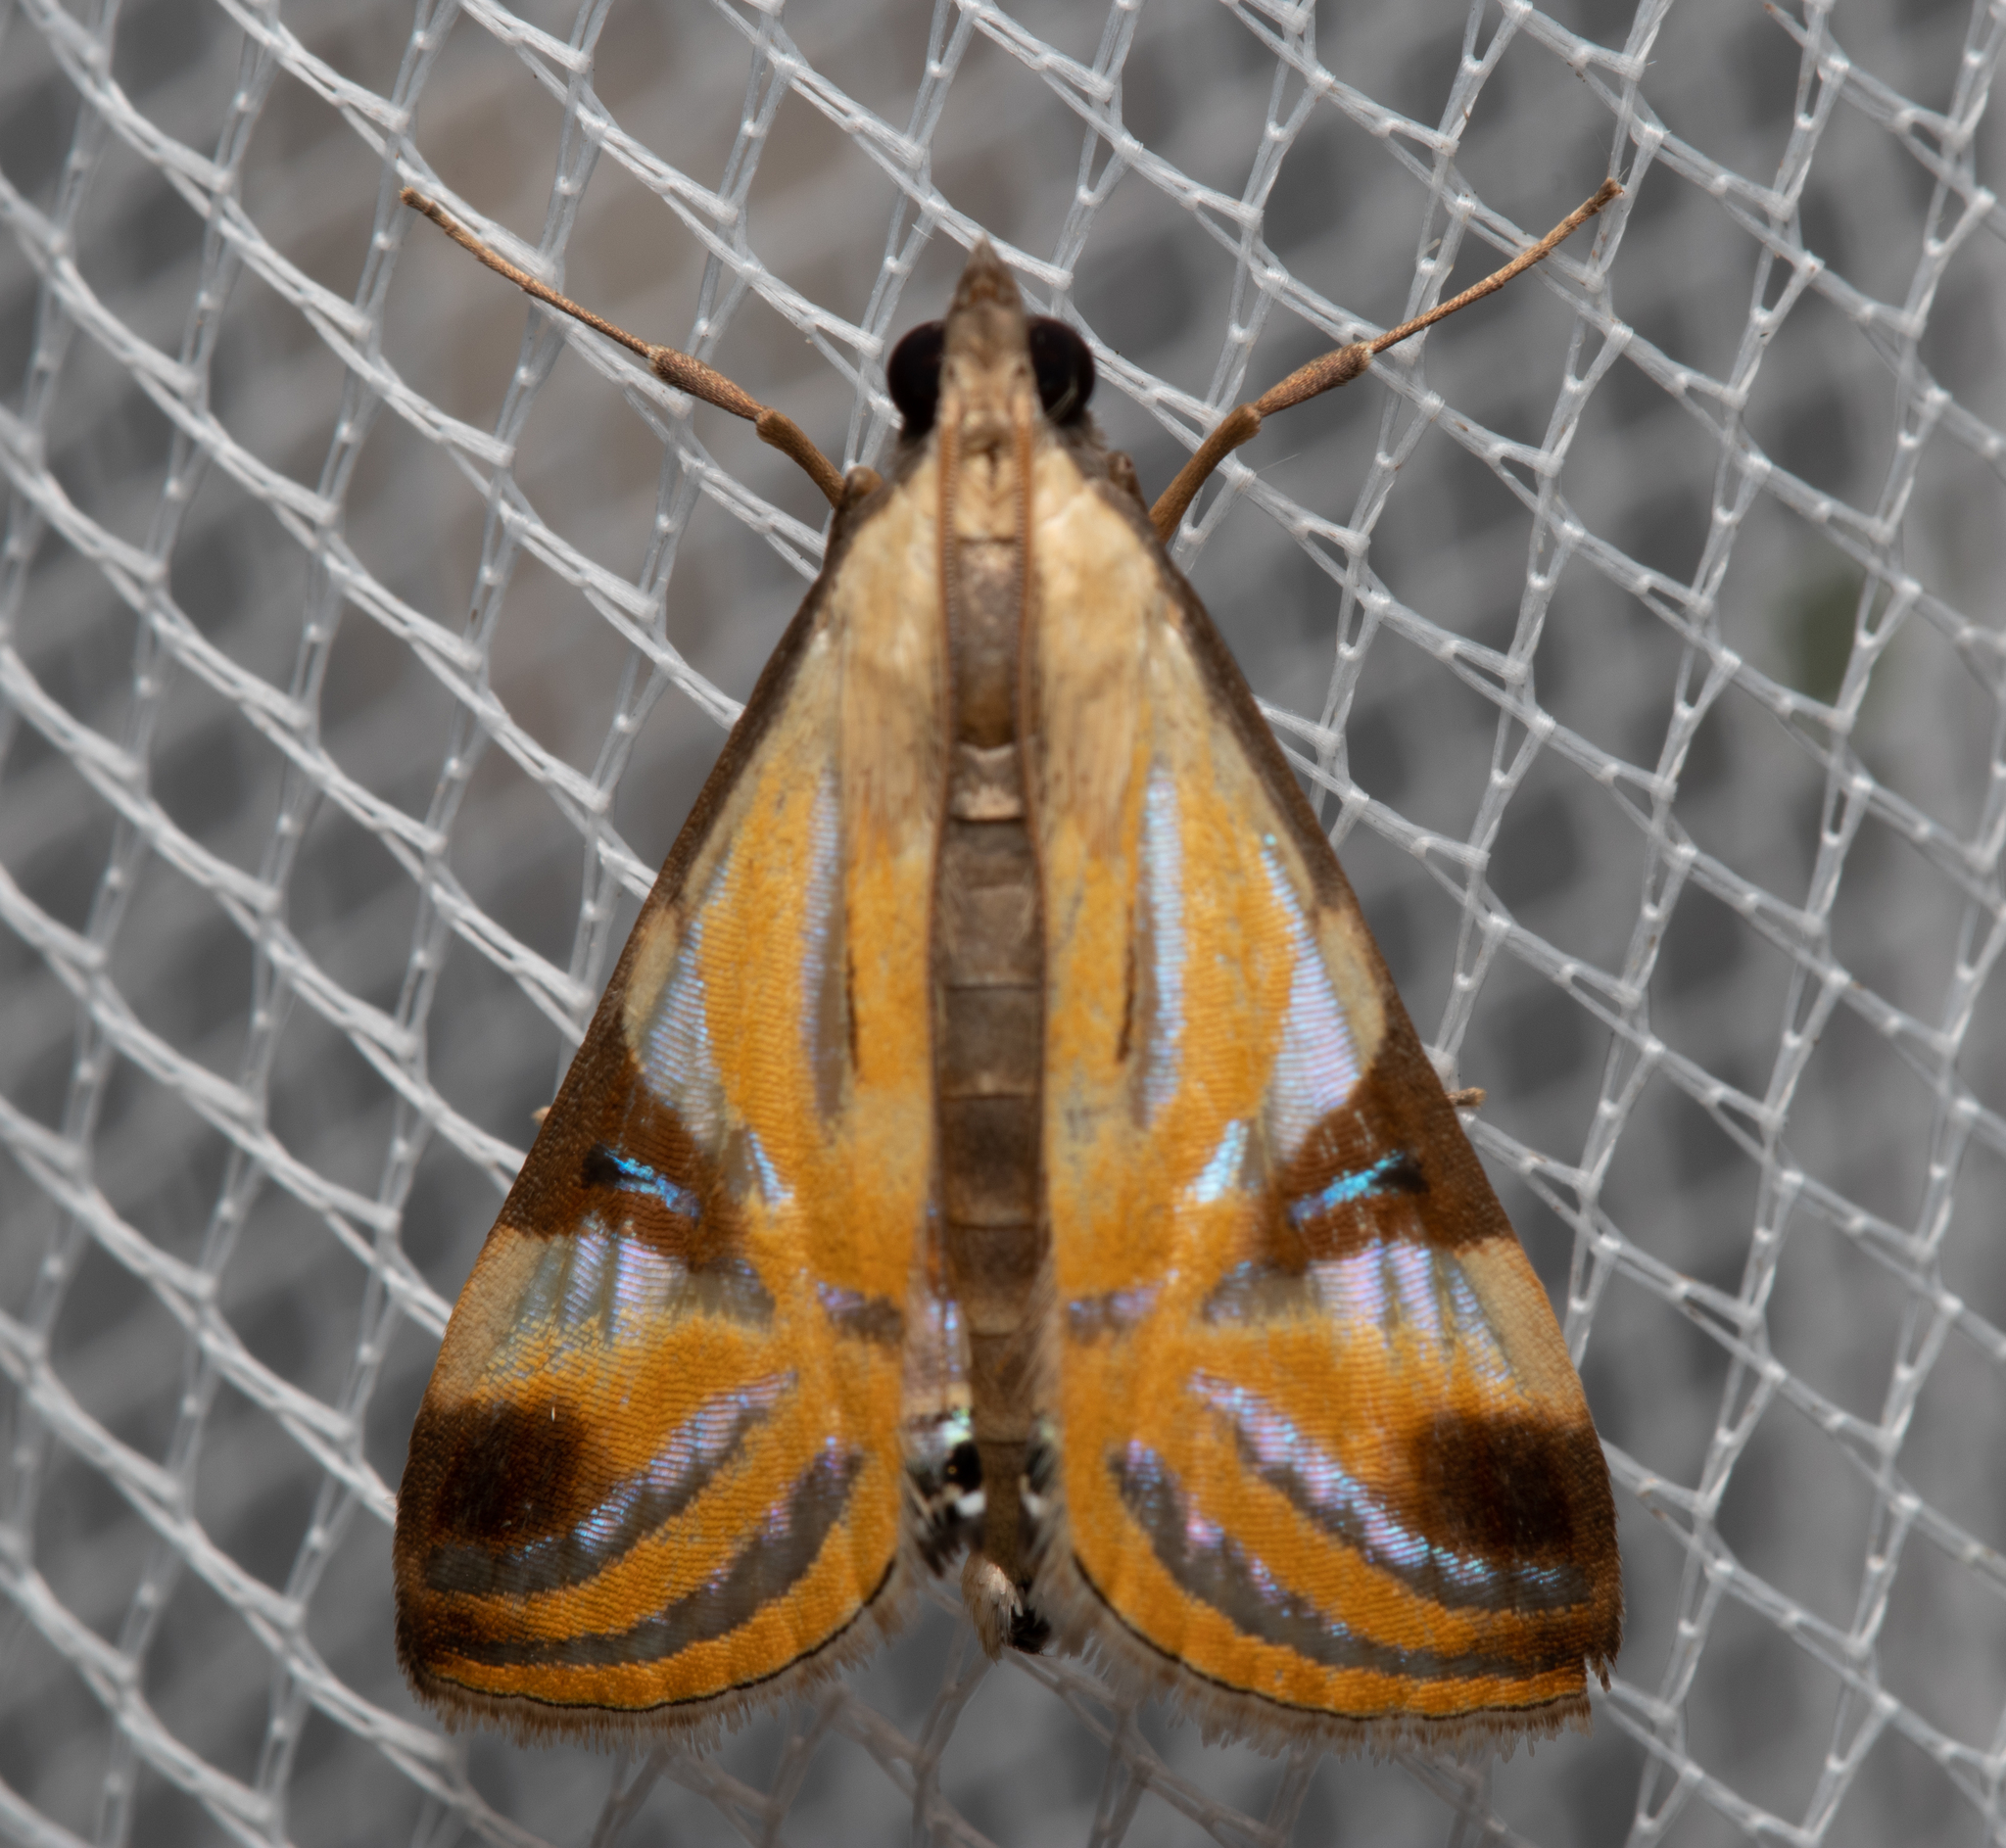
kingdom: Animalia
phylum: Arthropoda
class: Insecta
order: Lepidoptera
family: Crambidae
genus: Talanga
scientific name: Talanga tolumnialis
